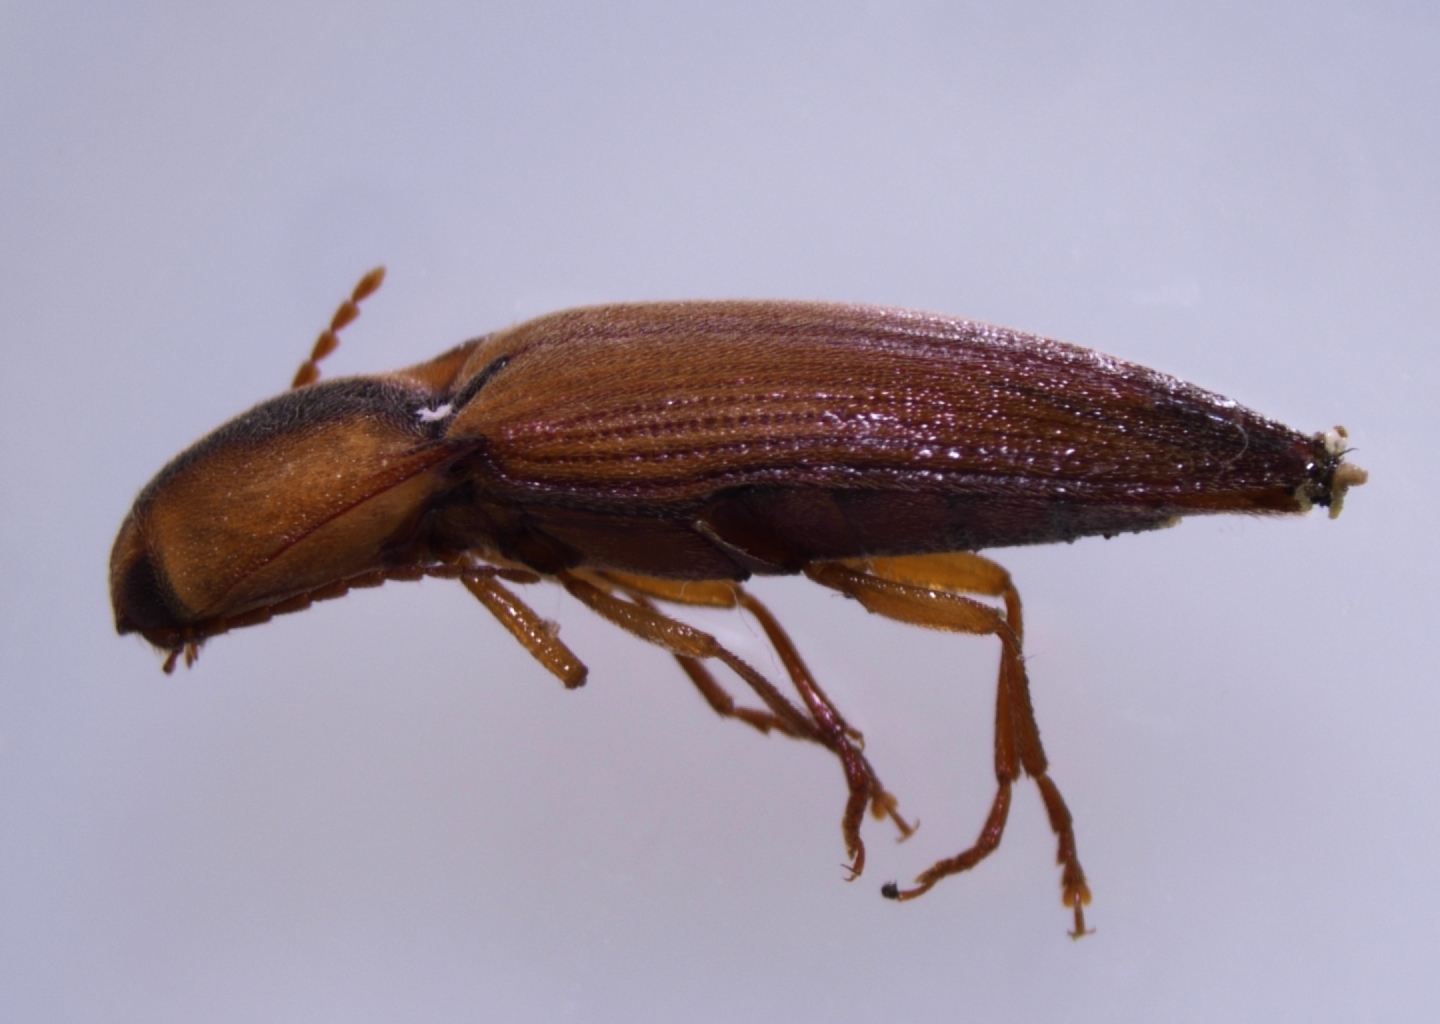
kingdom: Animalia
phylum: Arthropoda
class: Insecta
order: Coleoptera
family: Elateridae
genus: Simodactylus
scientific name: Simodactylus cinnamomeus
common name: Click beetle
